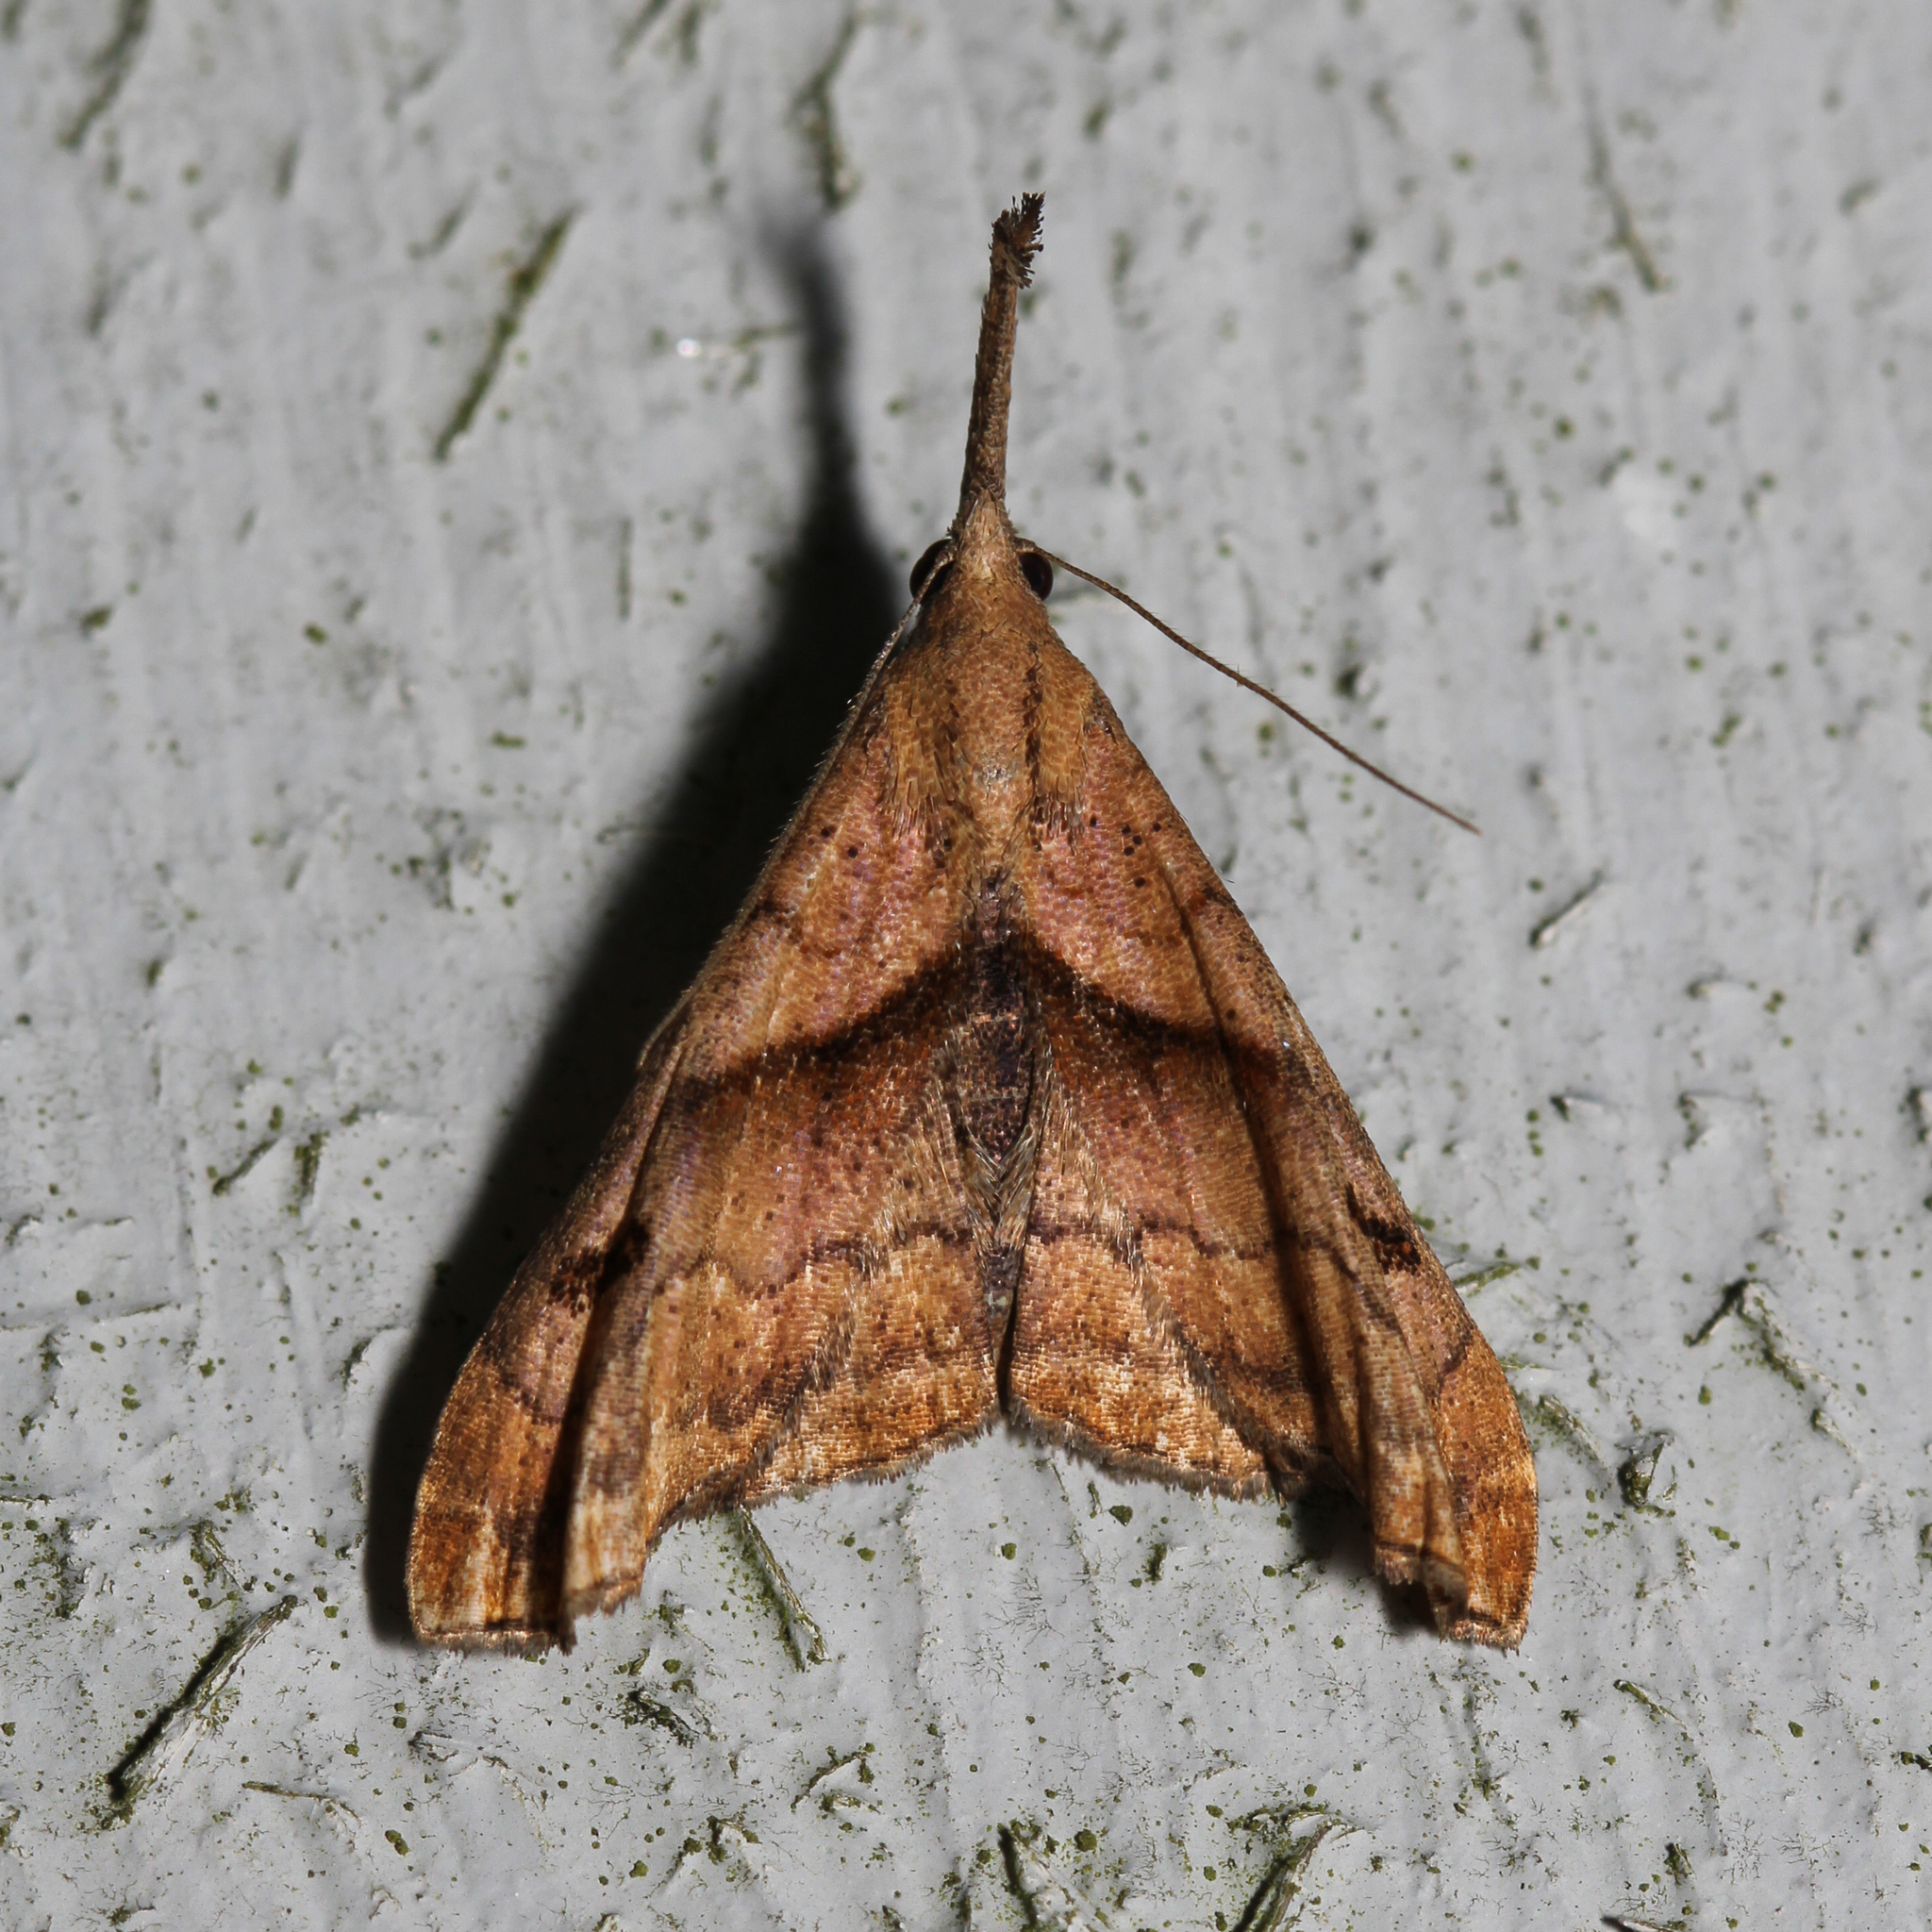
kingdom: Animalia
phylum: Arthropoda
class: Insecta
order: Lepidoptera
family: Erebidae
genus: Palthis
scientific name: Palthis angulalis
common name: Dark-spotted palthis moth
